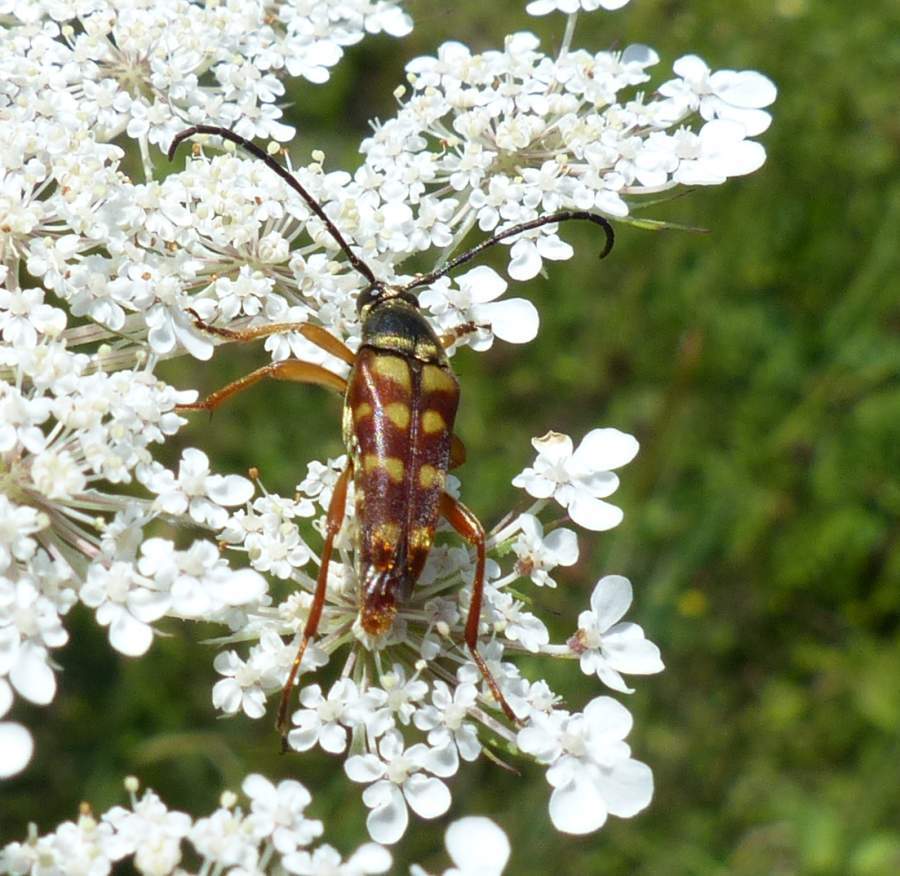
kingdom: Animalia
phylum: Arthropoda
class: Insecta
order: Coleoptera
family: Cerambycidae
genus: Typocerus
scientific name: Typocerus velutinus
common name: Banded longhorn beetle
